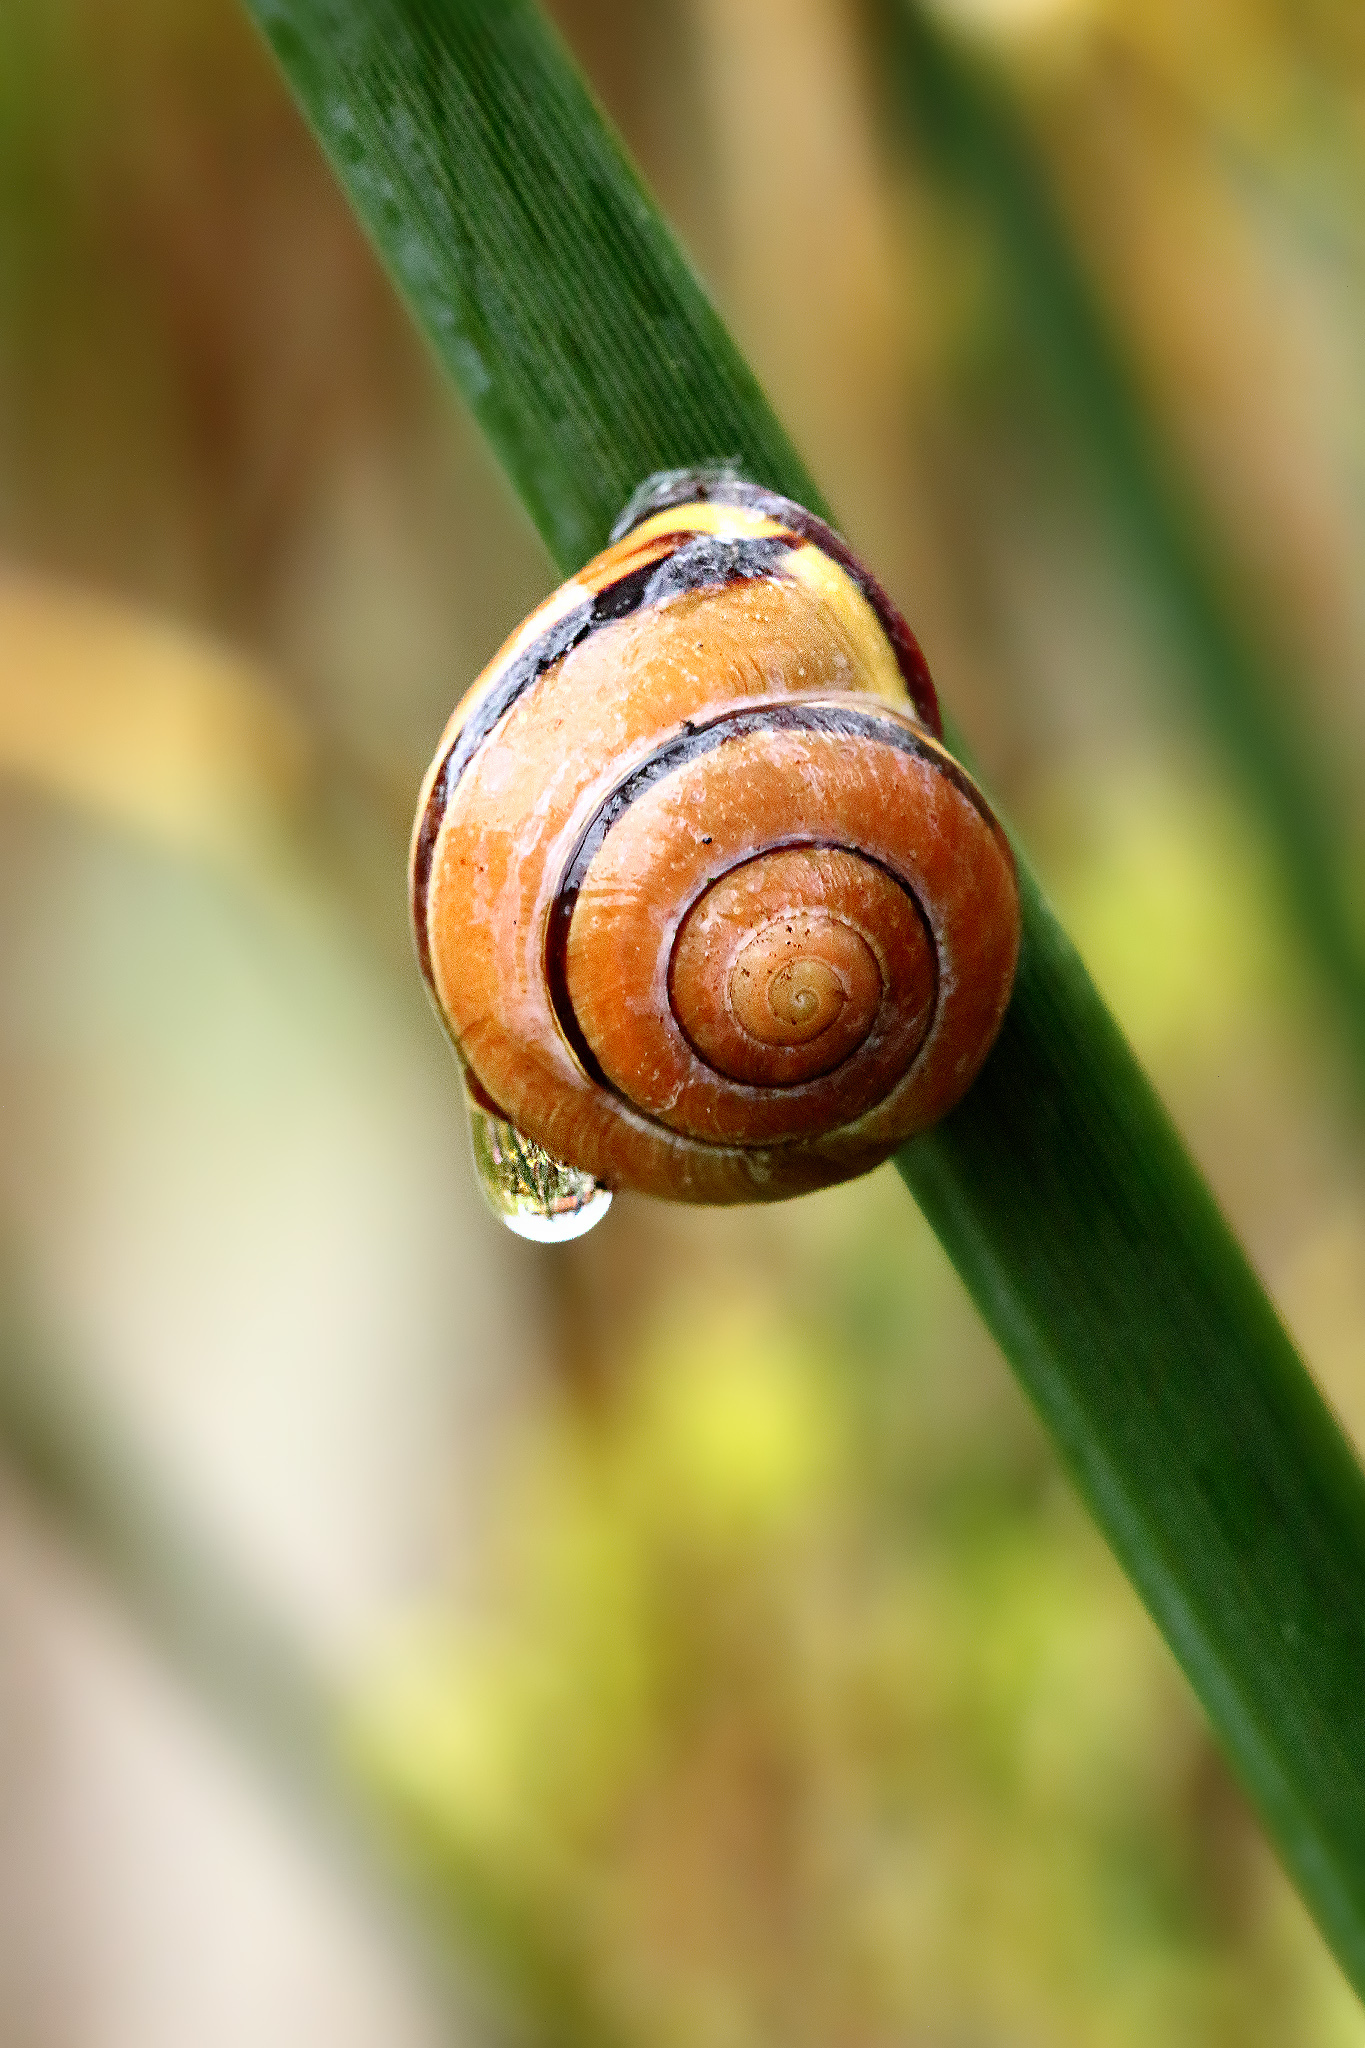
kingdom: Animalia
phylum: Mollusca
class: Gastropoda
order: Stylommatophora
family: Helicidae
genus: Cepaea
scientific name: Cepaea nemoralis
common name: Grovesnail
